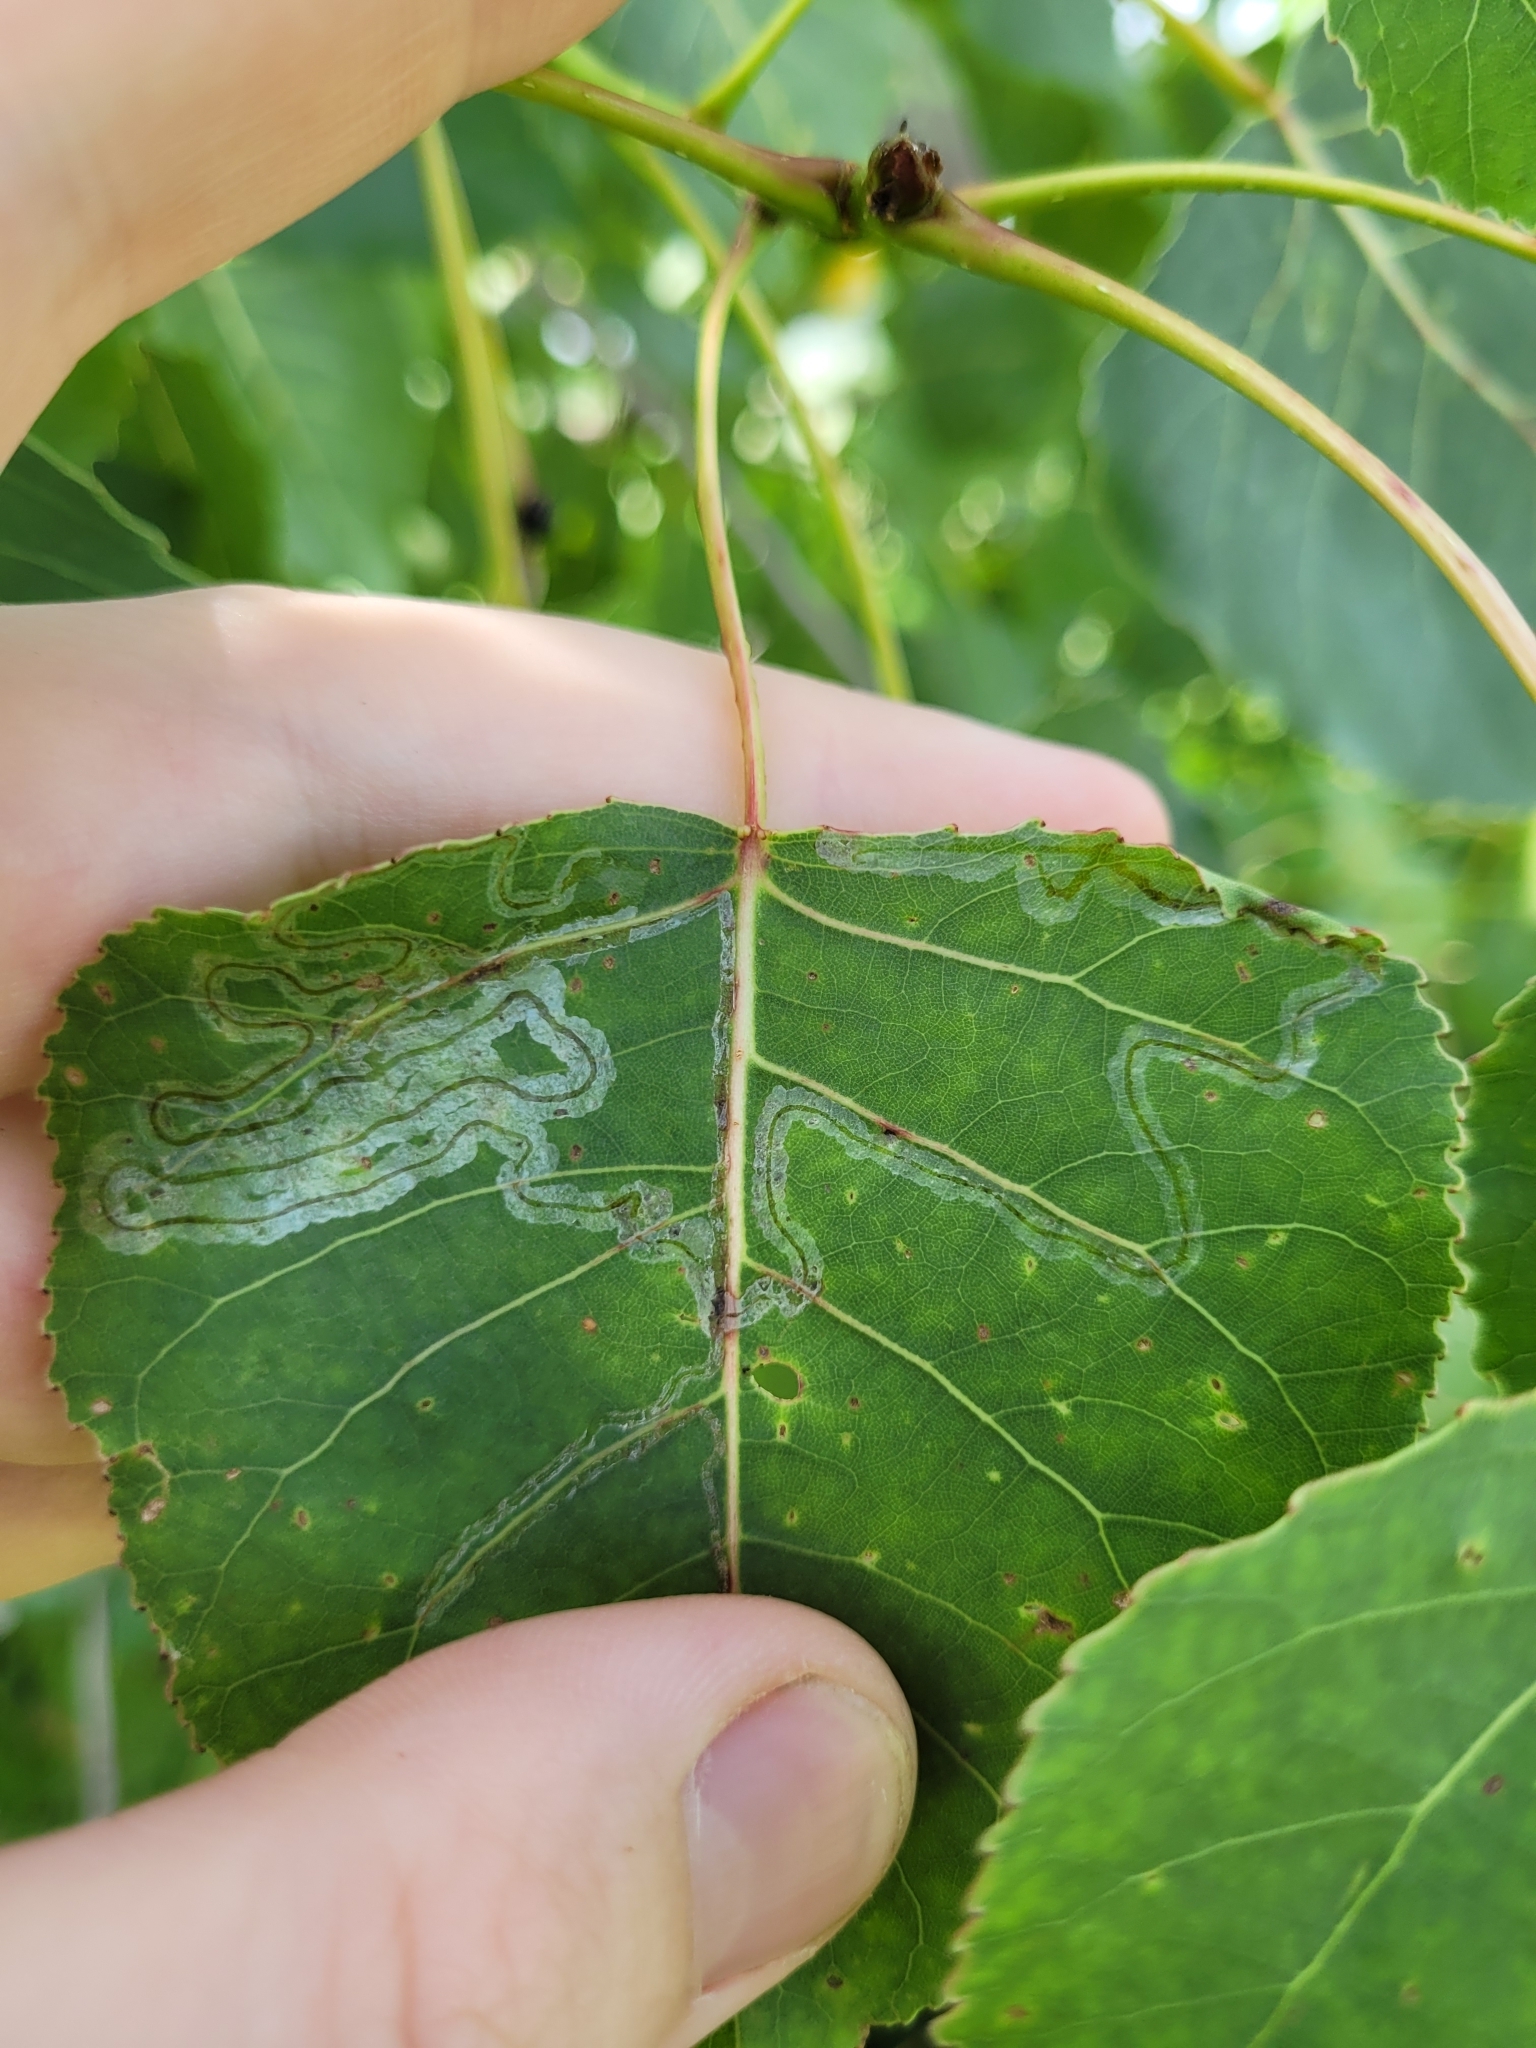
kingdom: Animalia
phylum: Arthropoda
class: Insecta
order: Lepidoptera
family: Gracillariidae
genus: Phyllocnistis
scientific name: Phyllocnistis populiella
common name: Aspen serpentine leafminer moth
